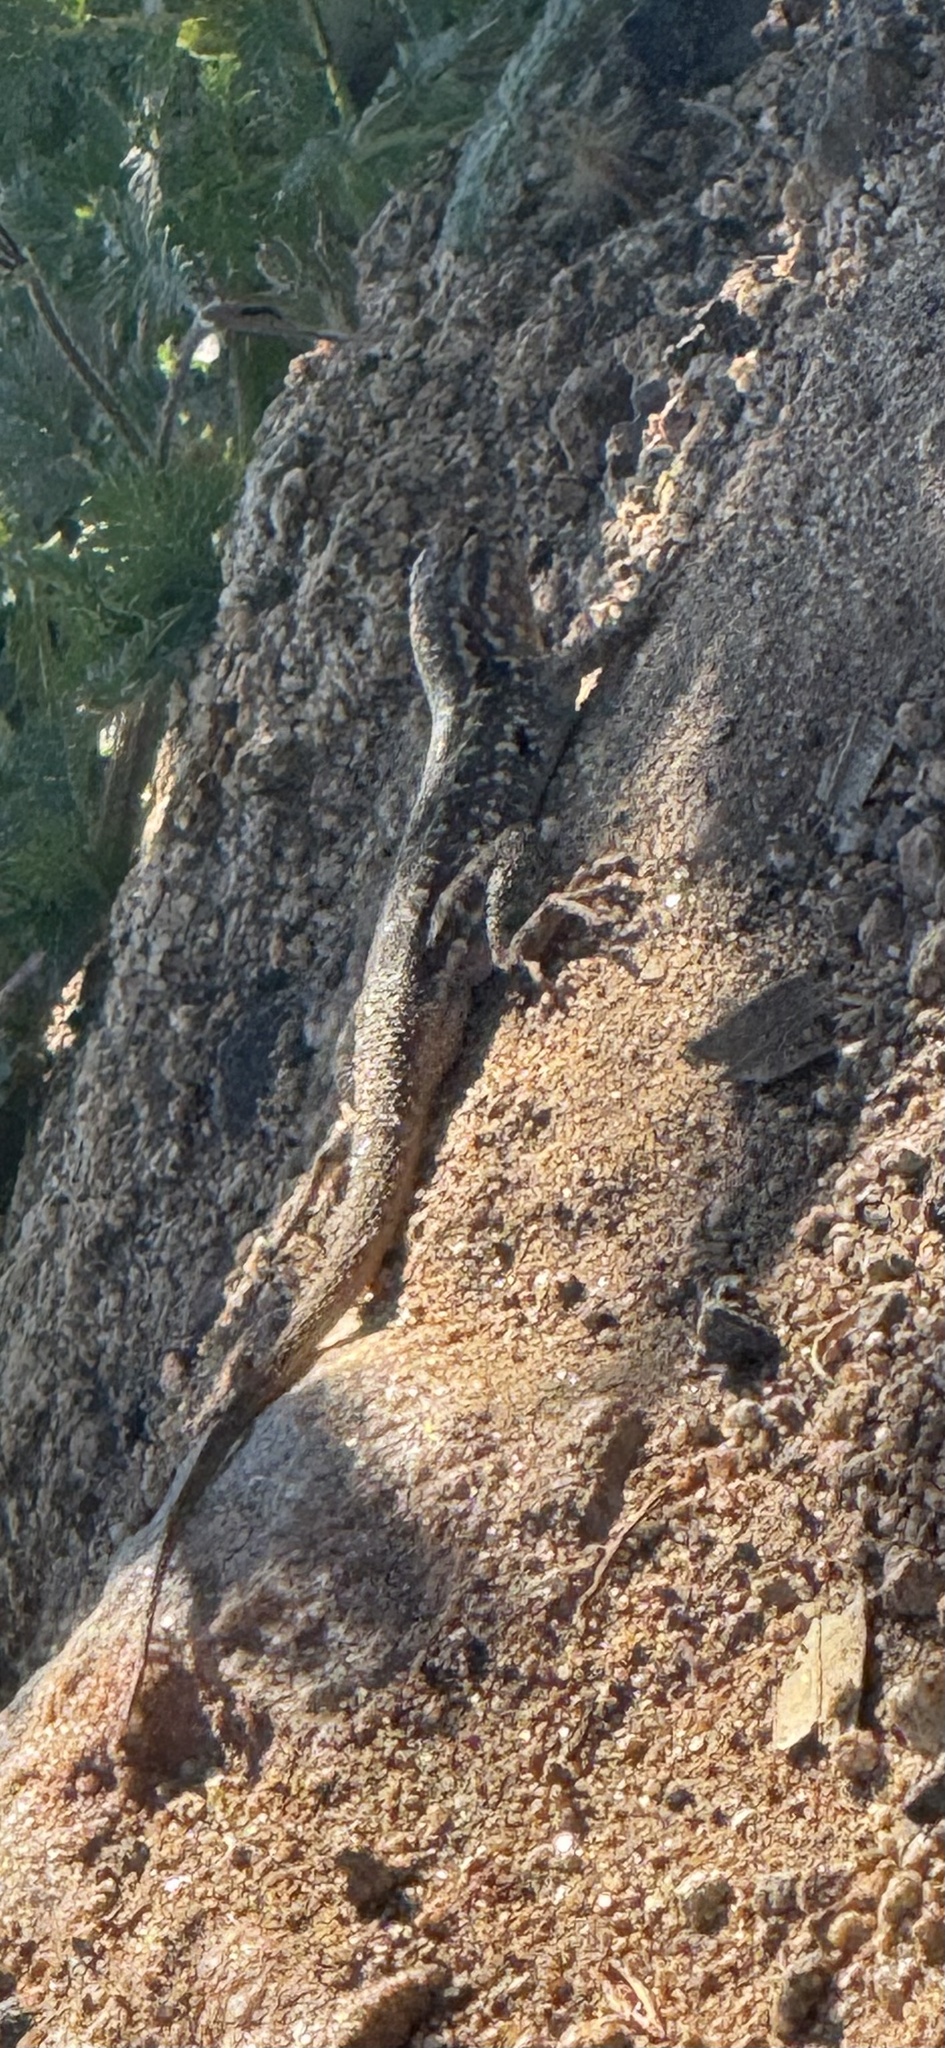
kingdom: Animalia
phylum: Chordata
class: Squamata
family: Phrynosomatidae
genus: Uta
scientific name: Uta stansburiana
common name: Side-blotched lizard
